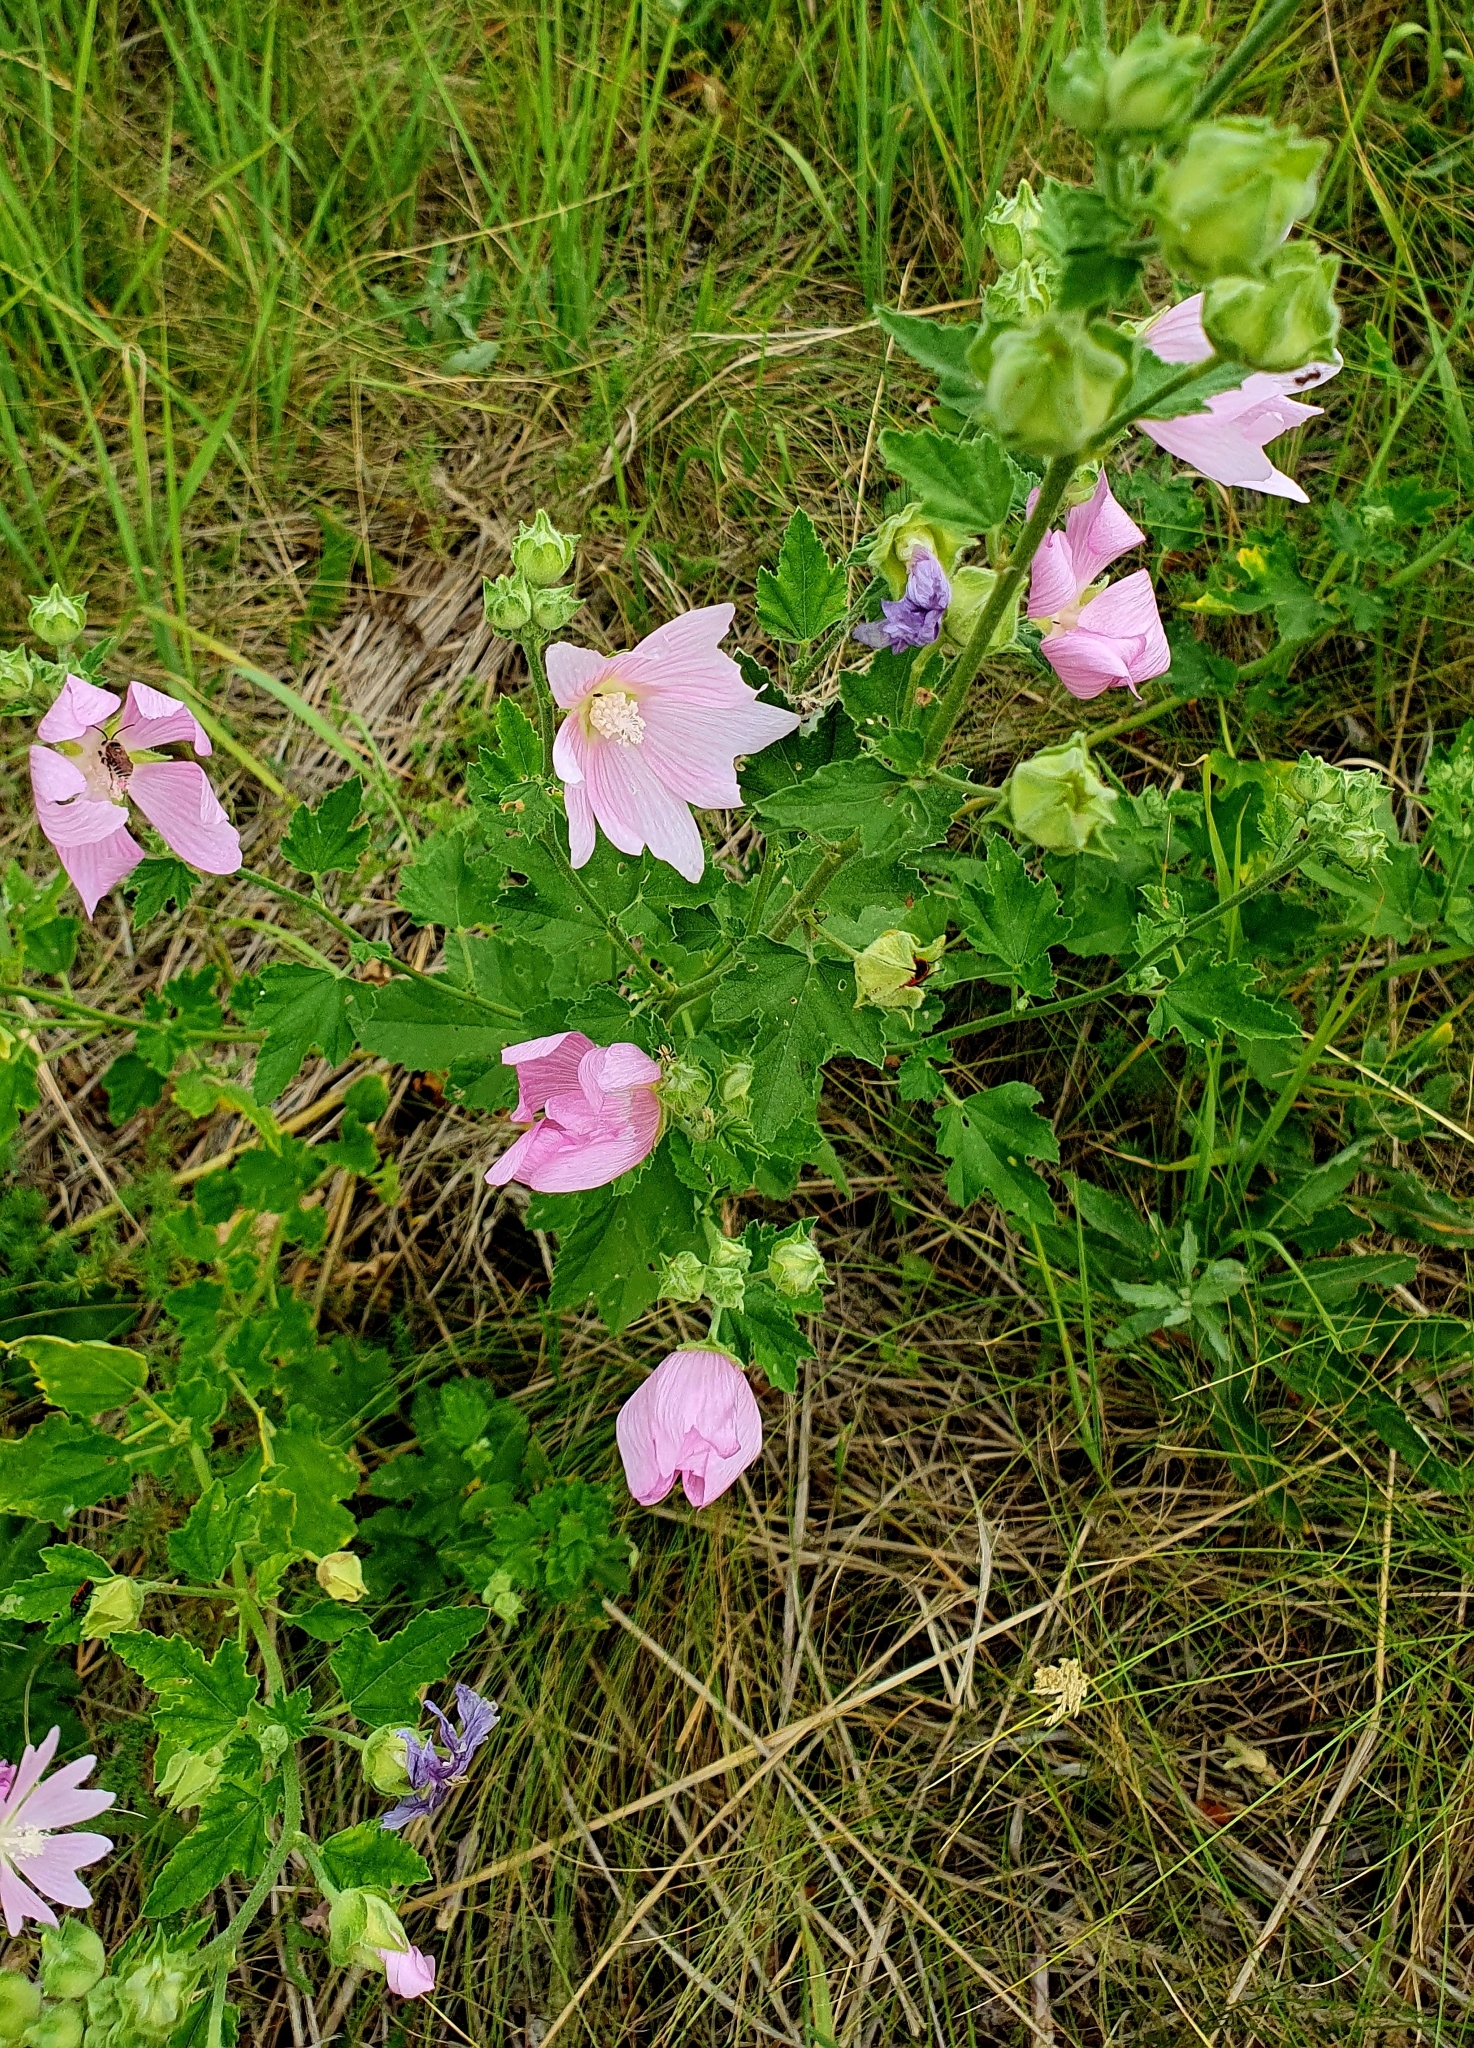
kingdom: Plantae
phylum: Tracheophyta
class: Magnoliopsida
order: Malvales
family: Malvaceae
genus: Malva
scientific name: Malva thuringiaca
